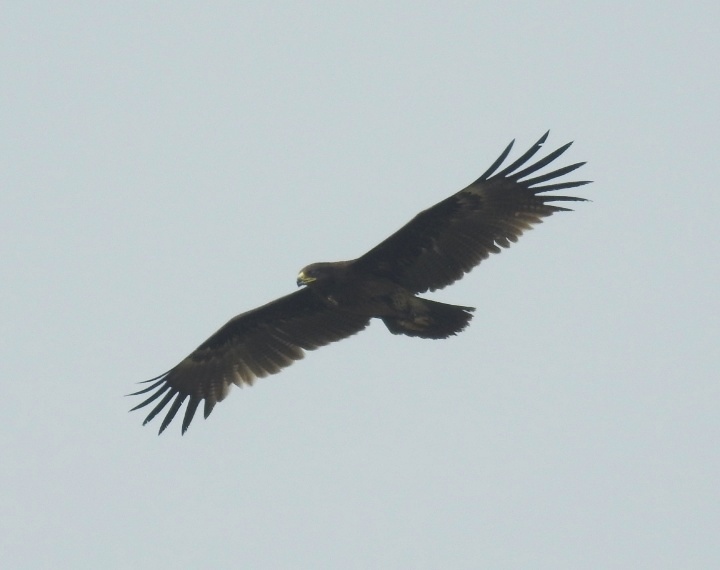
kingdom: Animalia
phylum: Chordata
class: Aves
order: Accipitriformes
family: Accipitridae
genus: Aquila
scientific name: Aquila clanga
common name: Greater spotted eagle
